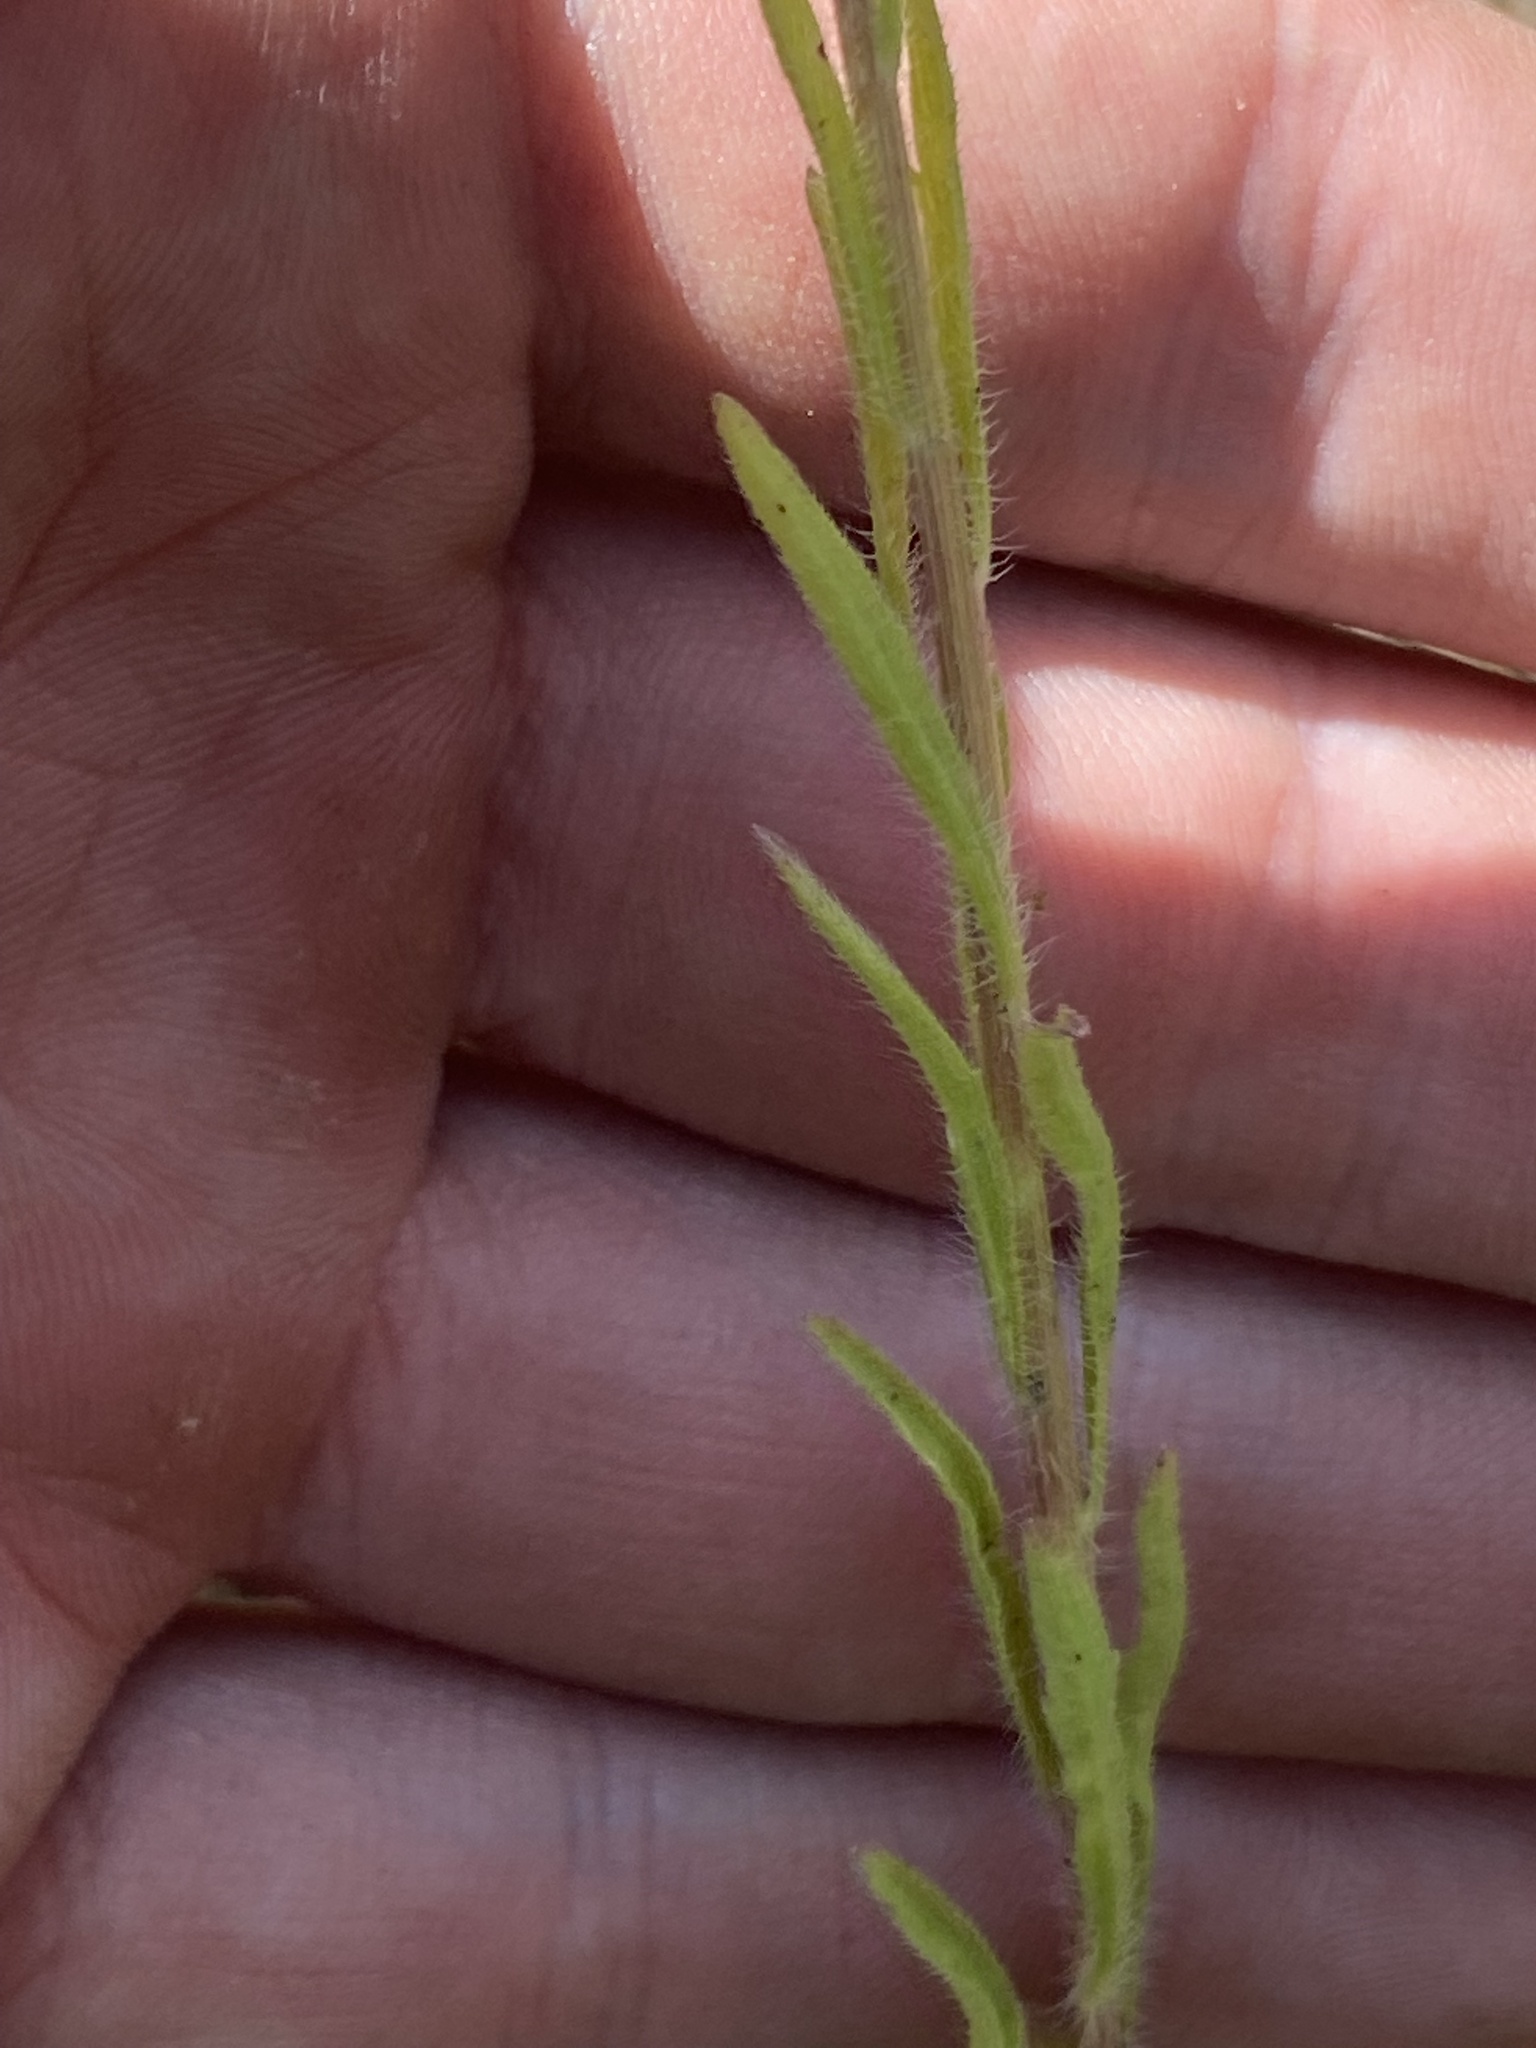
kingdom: Plantae
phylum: Tracheophyta
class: Magnoliopsida
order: Asterales
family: Asteraceae
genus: Erigeron
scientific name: Erigeron canadensis
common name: Canadian fleabane
